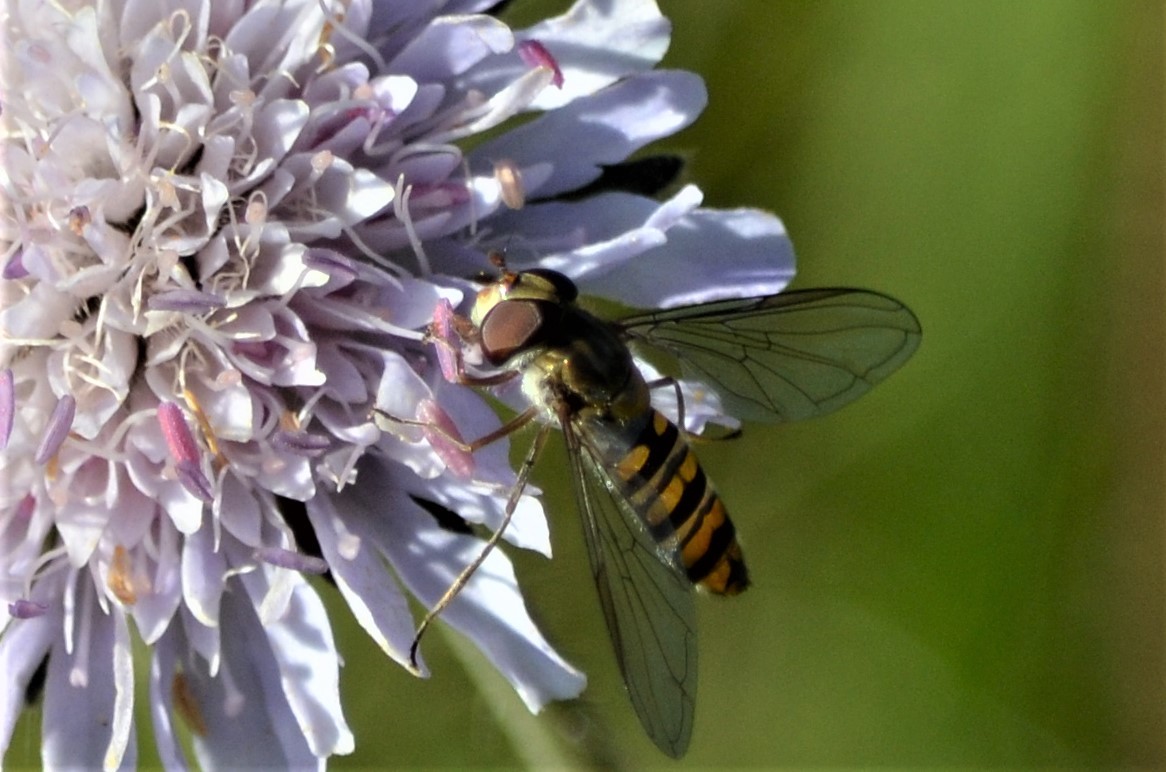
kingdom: Animalia
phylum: Arthropoda
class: Insecta
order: Diptera
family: Syrphidae
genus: Episyrphus
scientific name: Episyrphus balteatus
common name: Marmalade hoverfly
